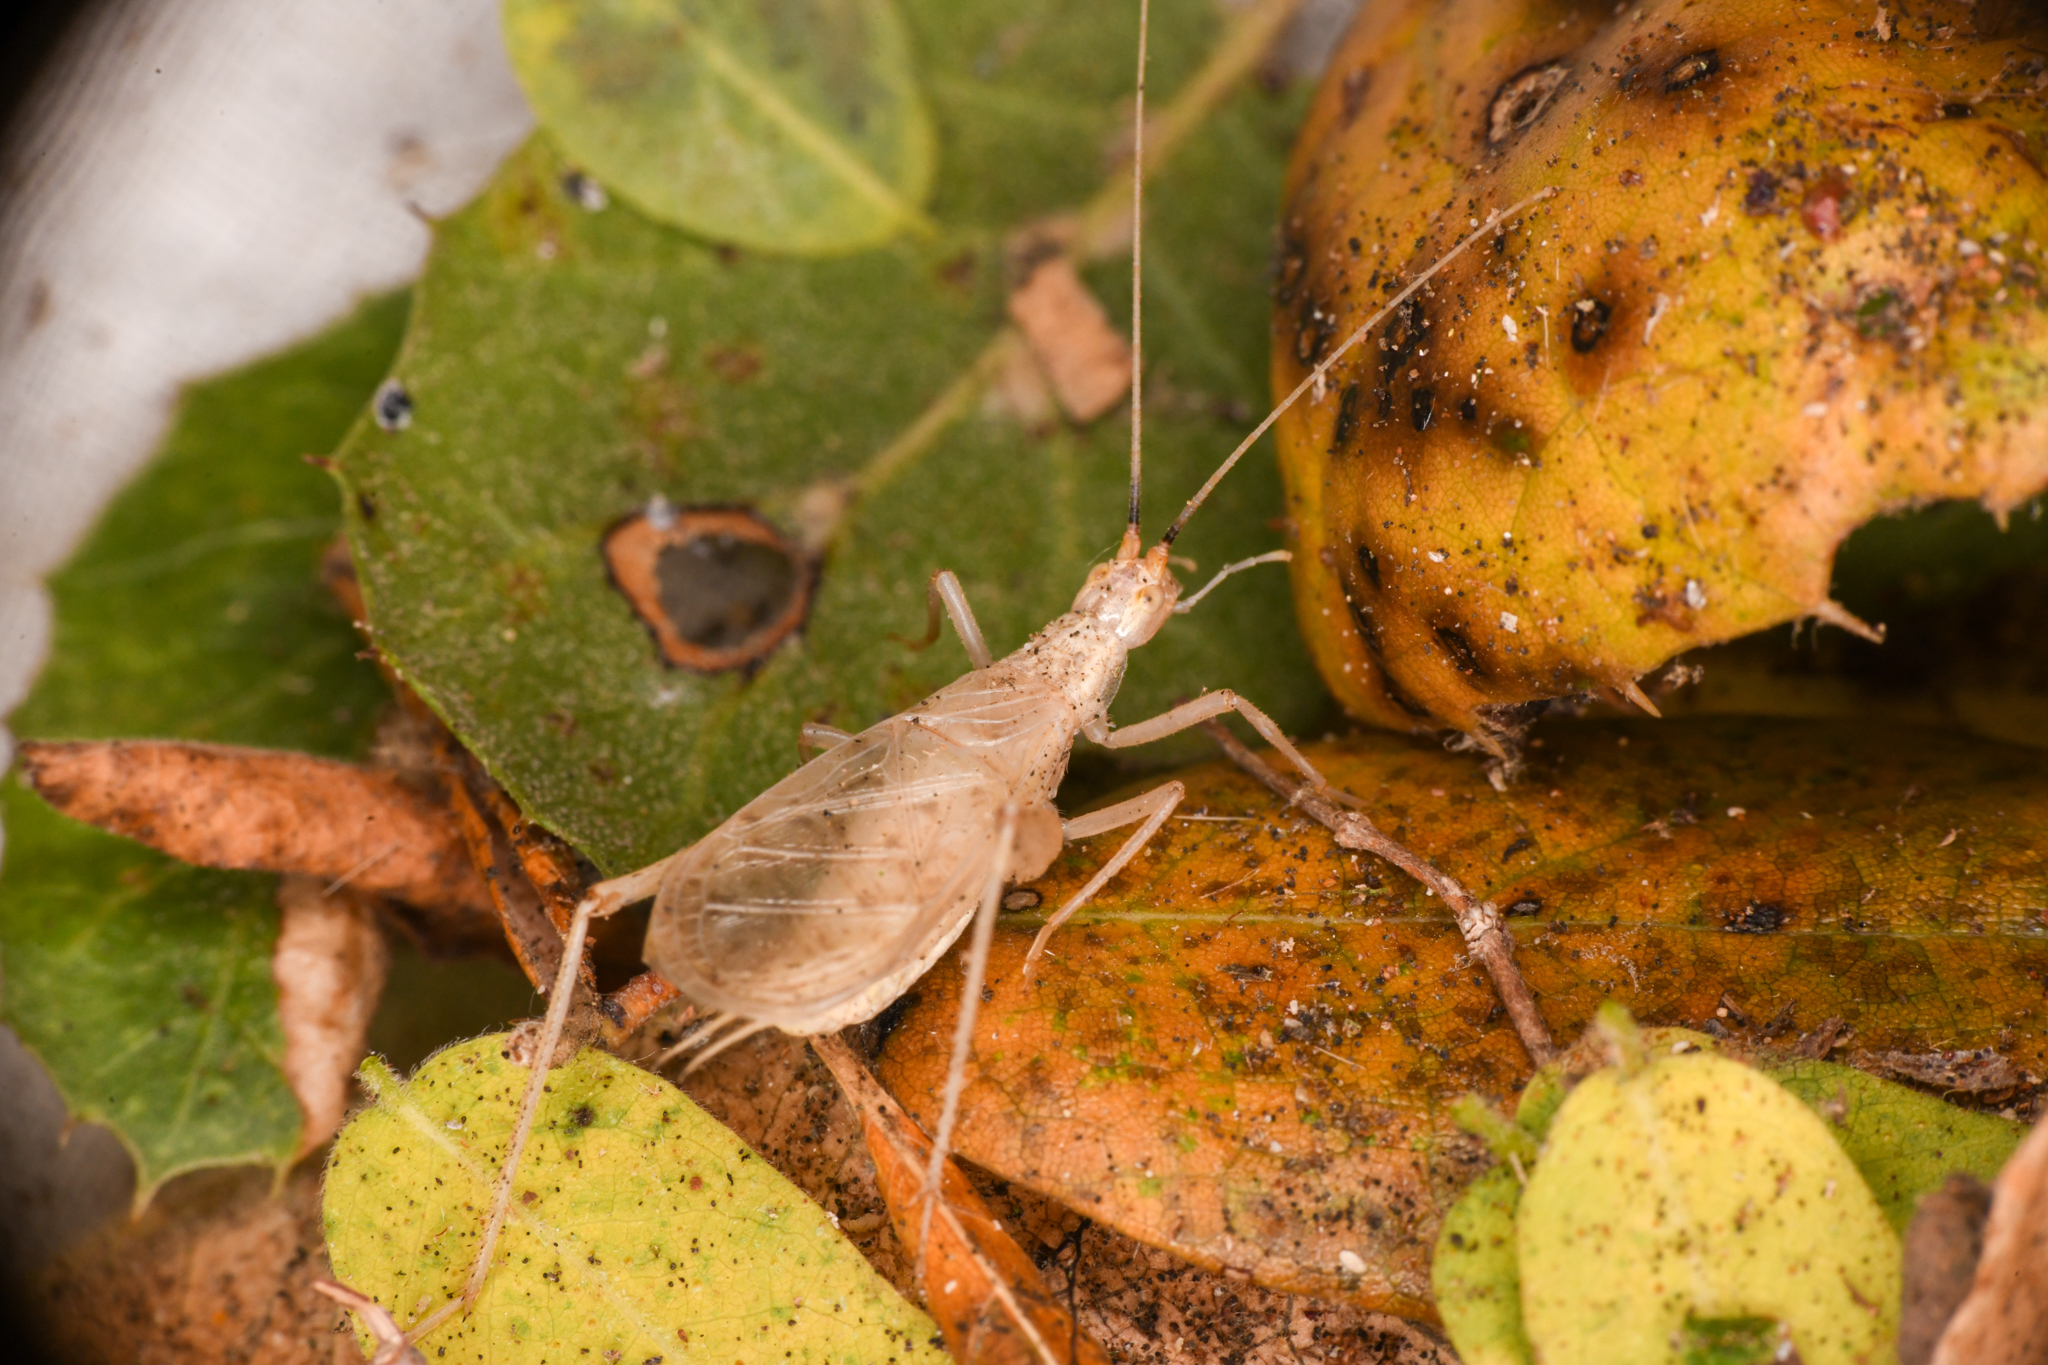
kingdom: Animalia
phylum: Arthropoda
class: Insecta
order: Orthoptera
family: Gryllidae
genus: Oecanthus
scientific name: Oecanthus californicus
